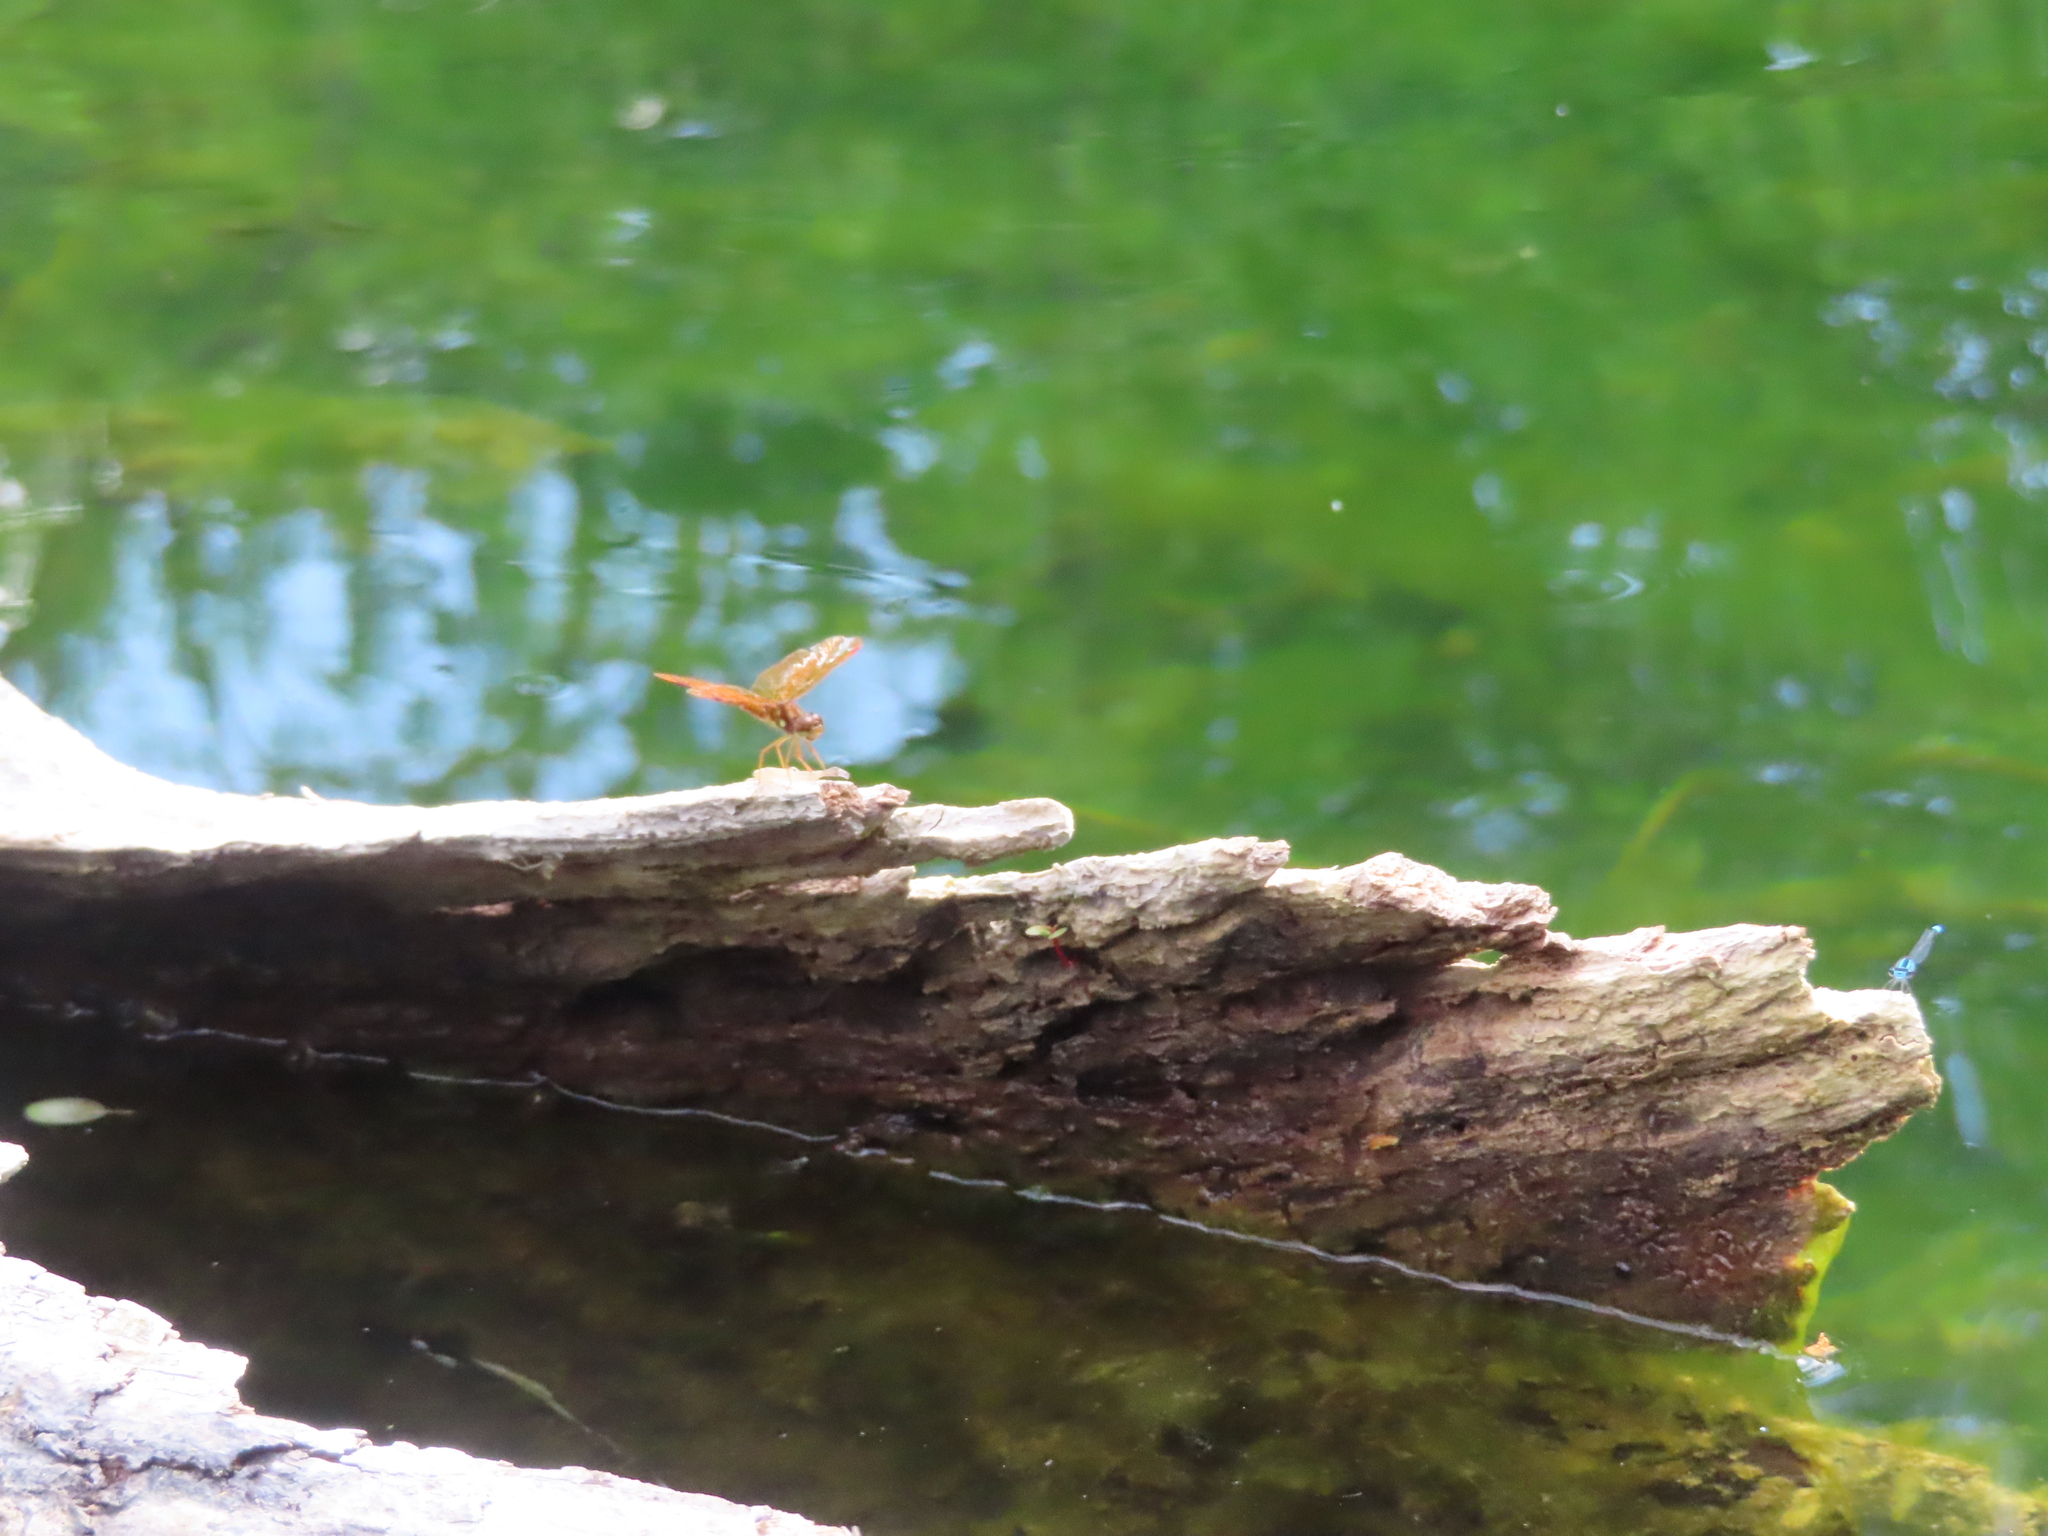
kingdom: Animalia
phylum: Arthropoda
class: Insecta
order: Odonata
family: Libellulidae
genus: Perithemis
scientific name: Perithemis tenera
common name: Eastern amberwing
